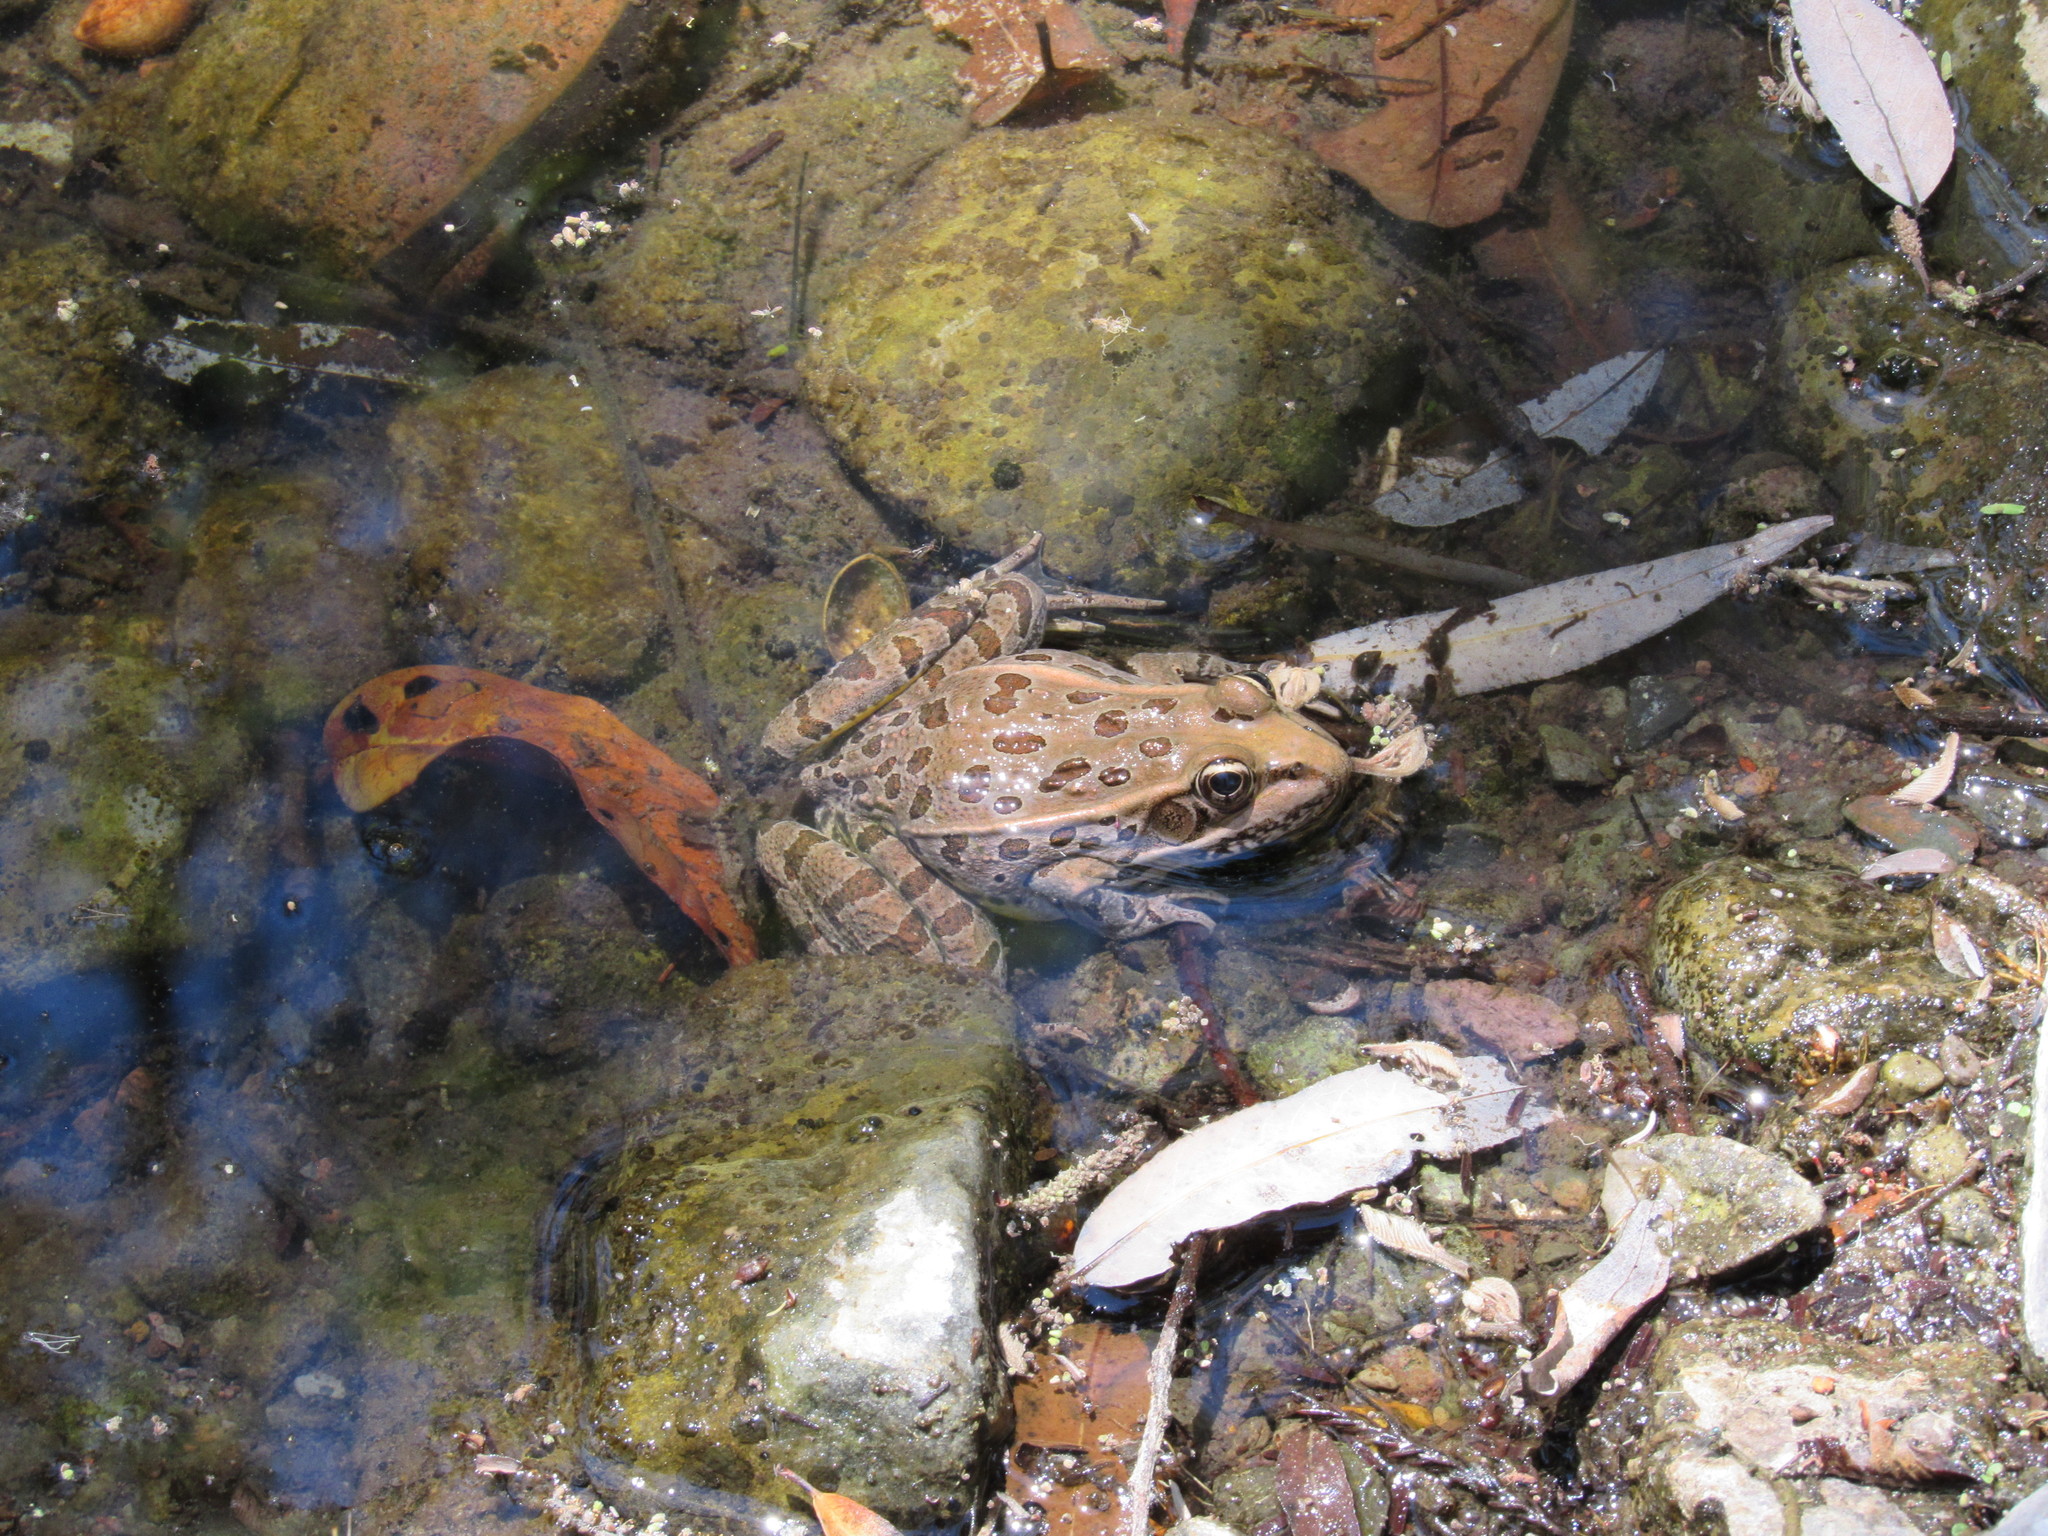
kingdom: Animalia
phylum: Chordata
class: Amphibia
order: Anura
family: Ranidae
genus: Lithobates
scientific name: Lithobates spectabilis
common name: Showy leopard frog
